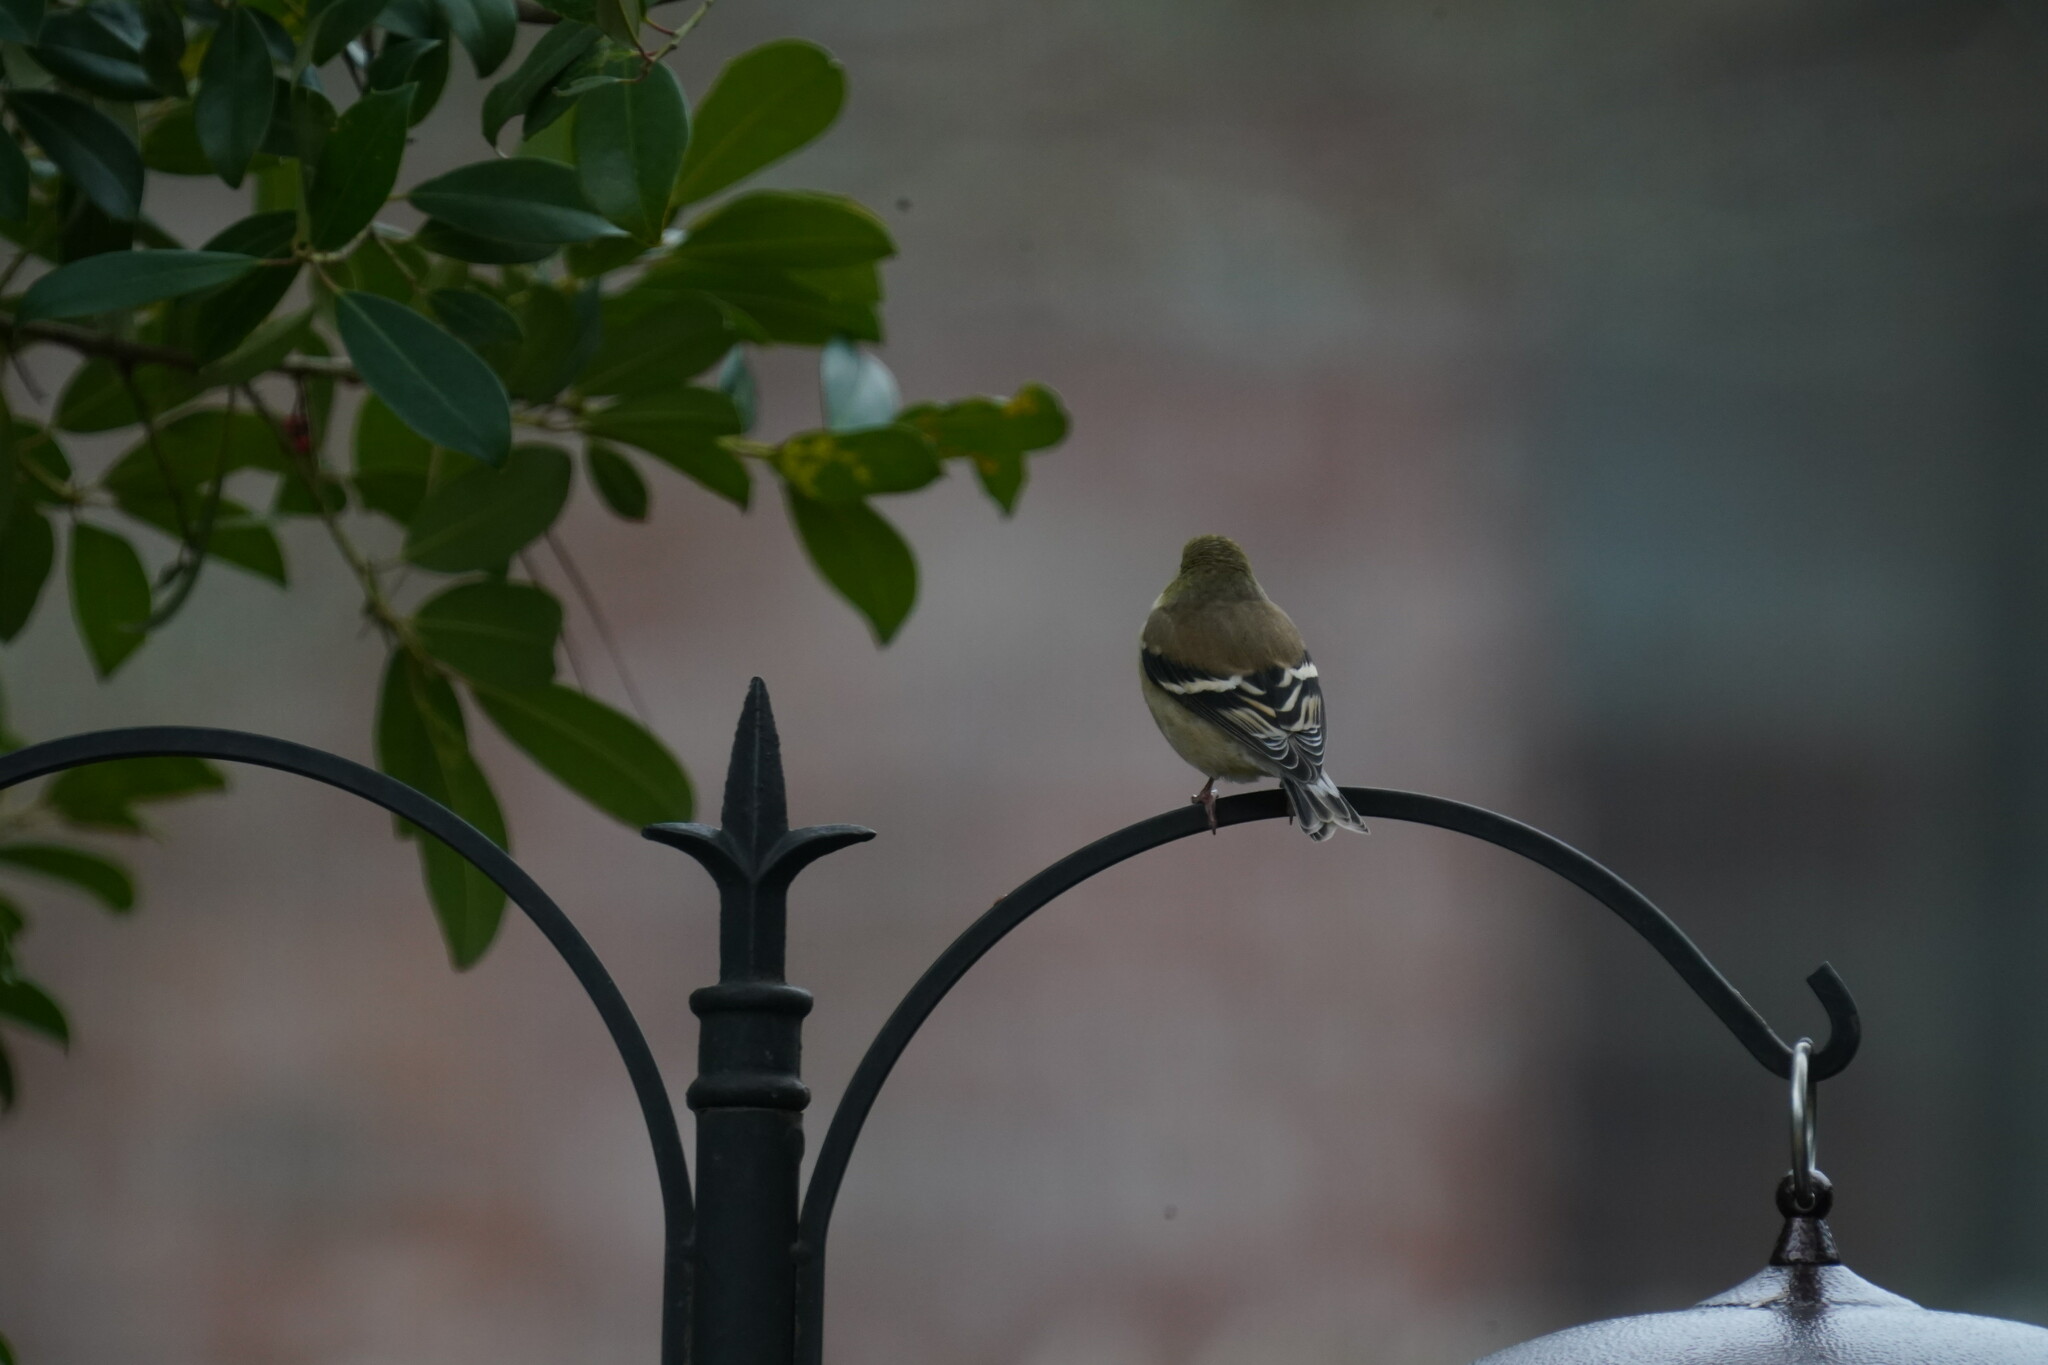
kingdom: Animalia
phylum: Chordata
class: Aves
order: Passeriformes
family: Fringillidae
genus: Spinus
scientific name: Spinus tristis
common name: American goldfinch
